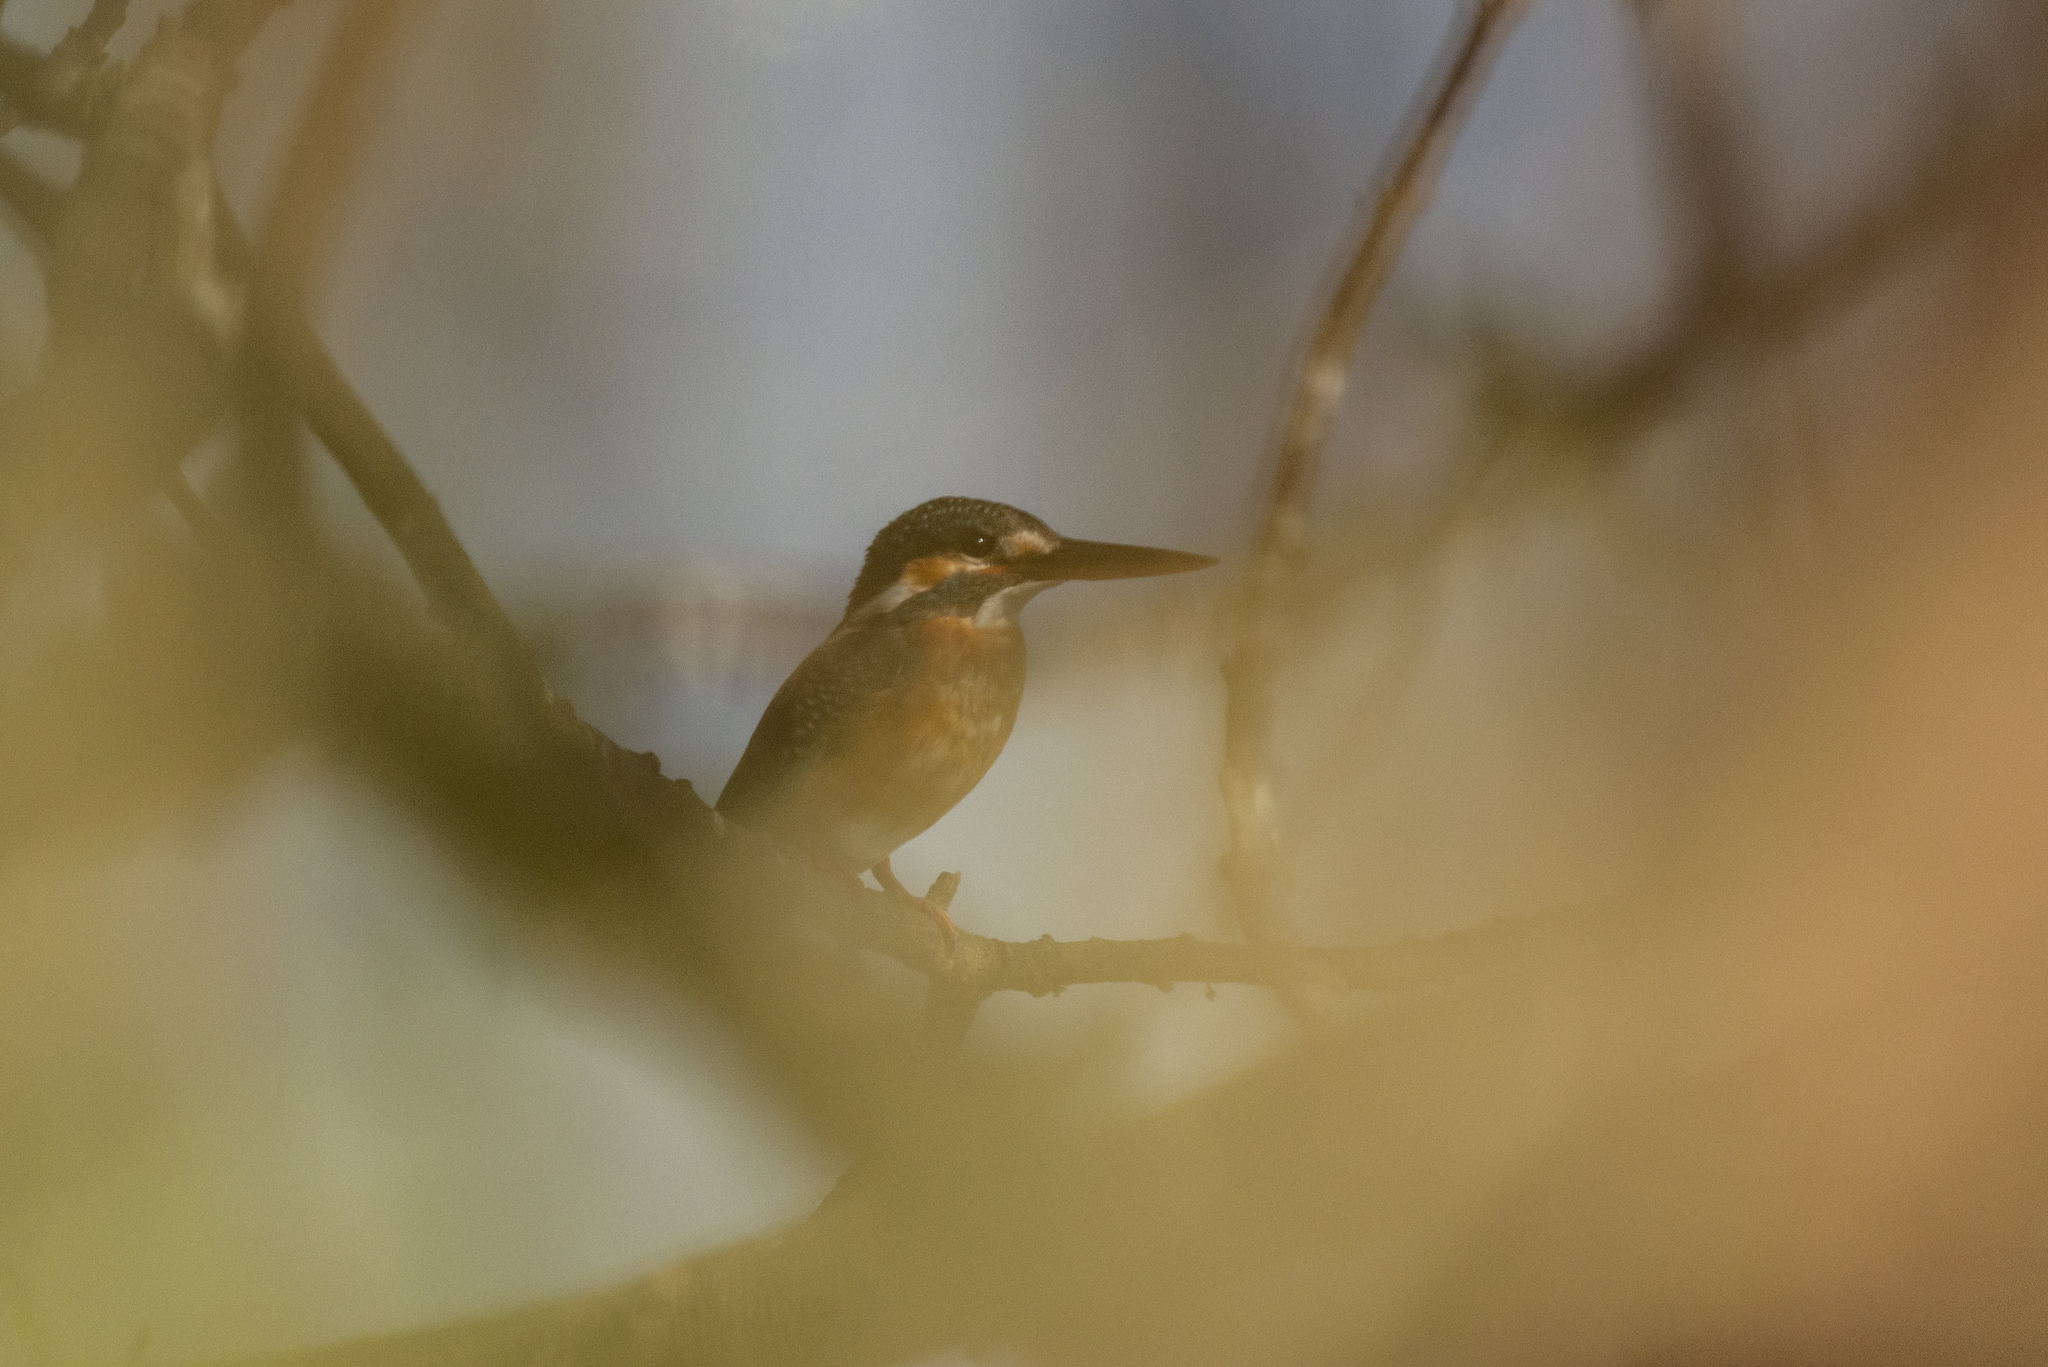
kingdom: Animalia
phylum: Chordata
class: Aves
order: Coraciiformes
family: Alcedinidae
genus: Alcedo
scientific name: Alcedo atthis
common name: Common kingfisher
